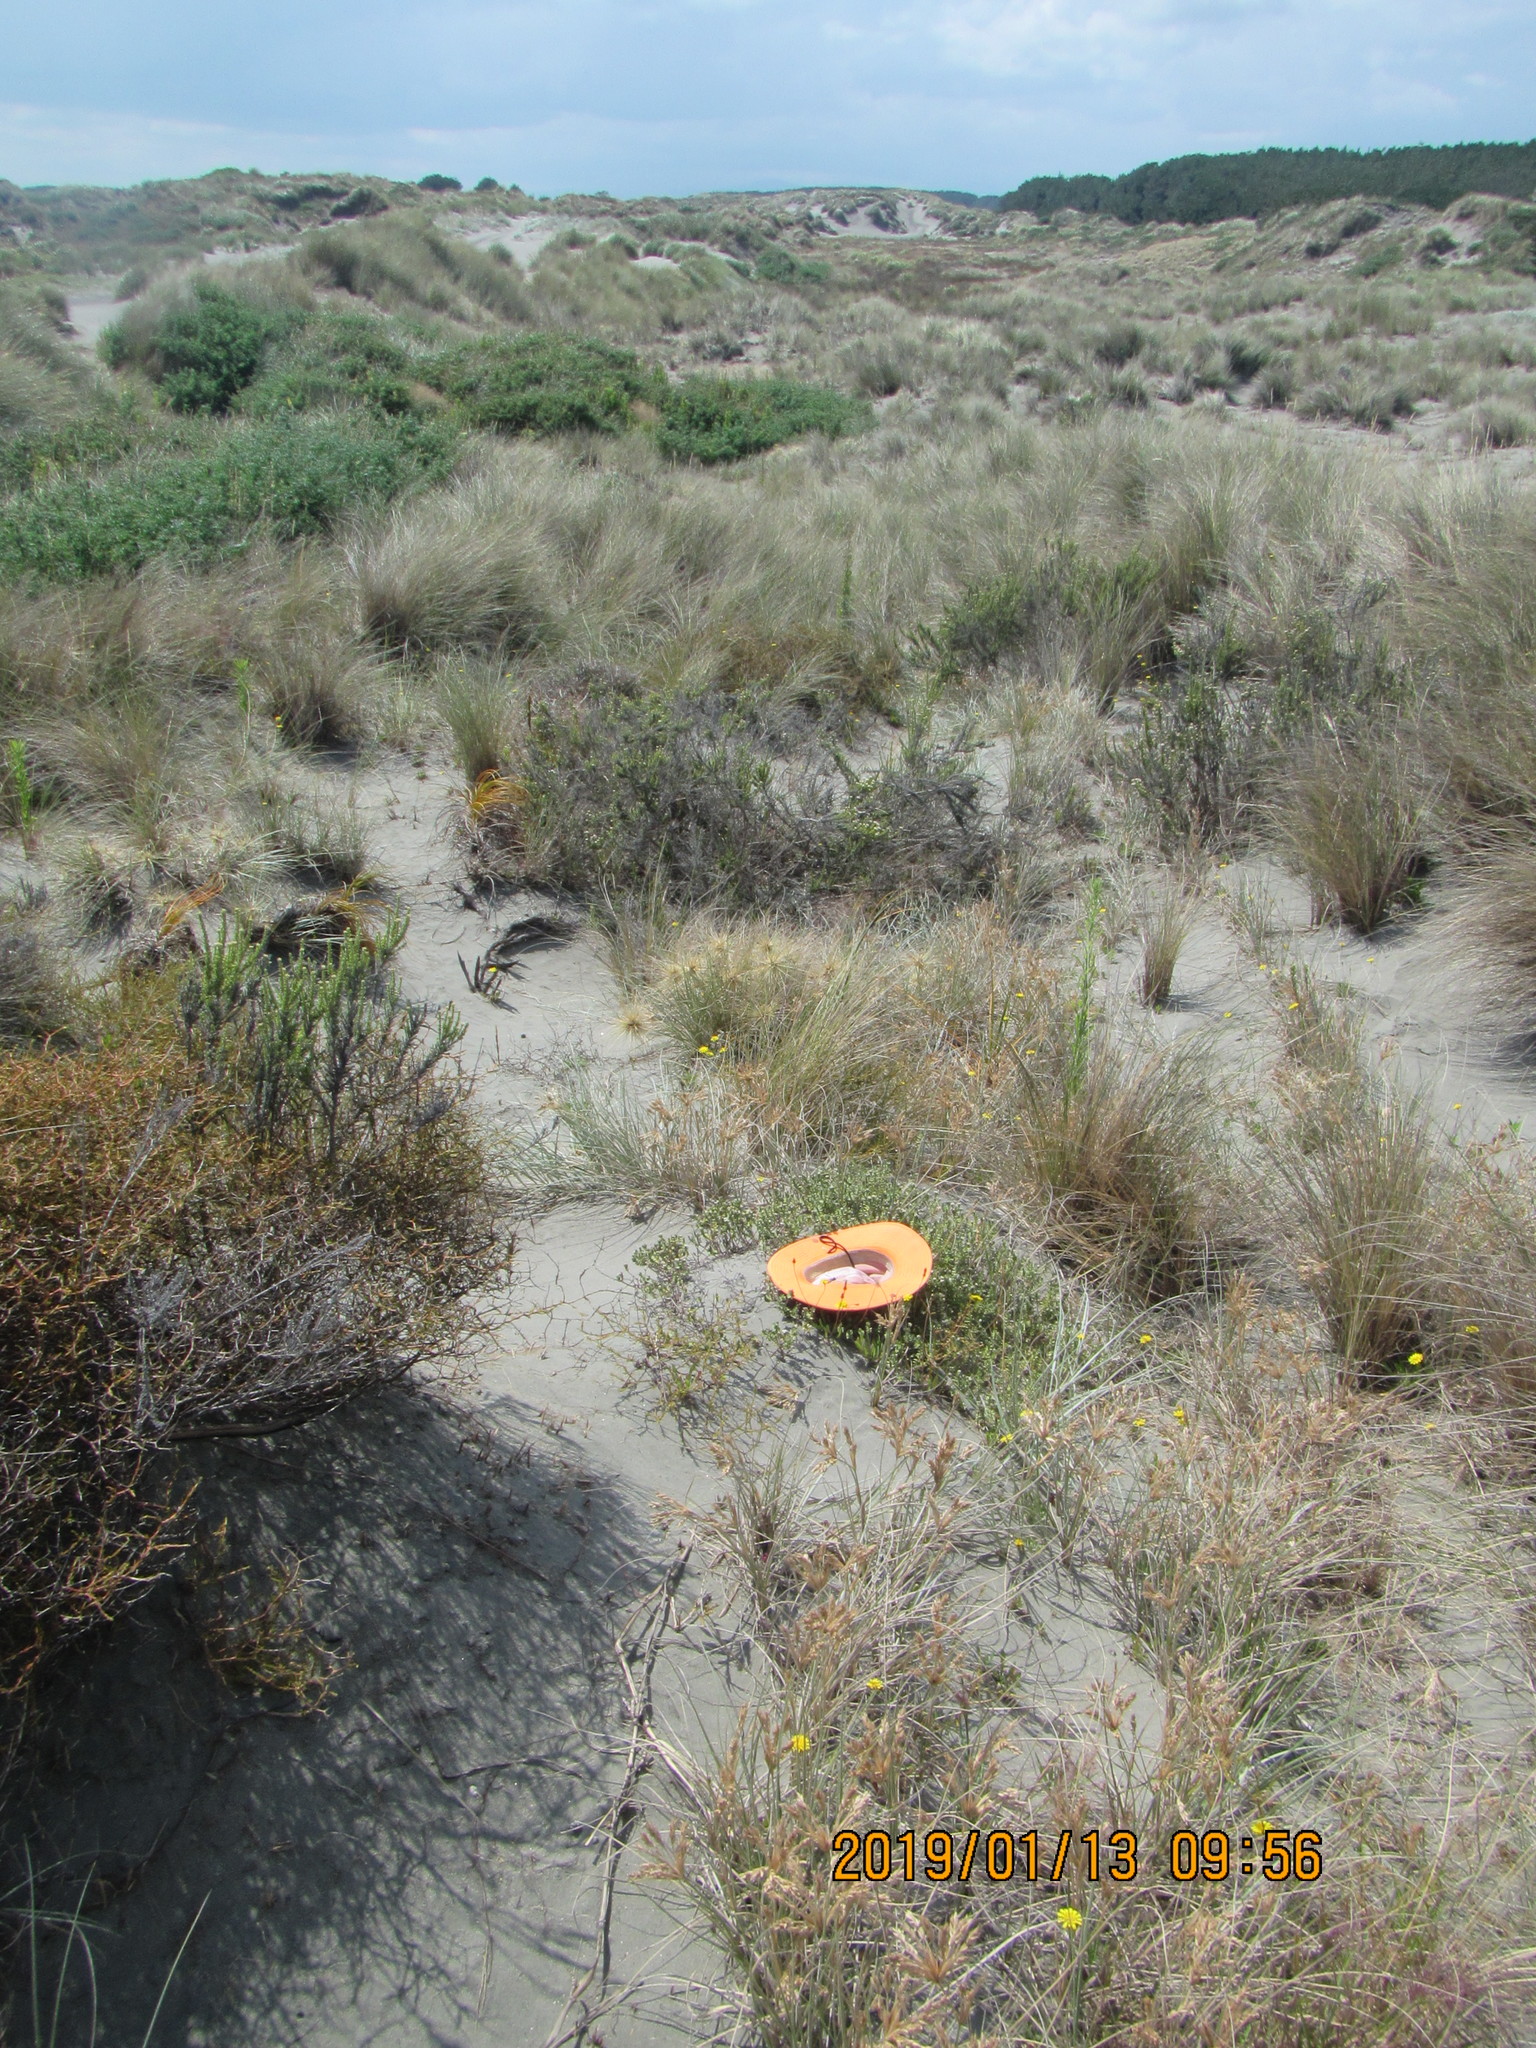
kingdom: Plantae
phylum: Tracheophyta
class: Magnoliopsida
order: Malvales
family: Thymelaeaceae
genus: Pimelea
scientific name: Pimelea villosa
